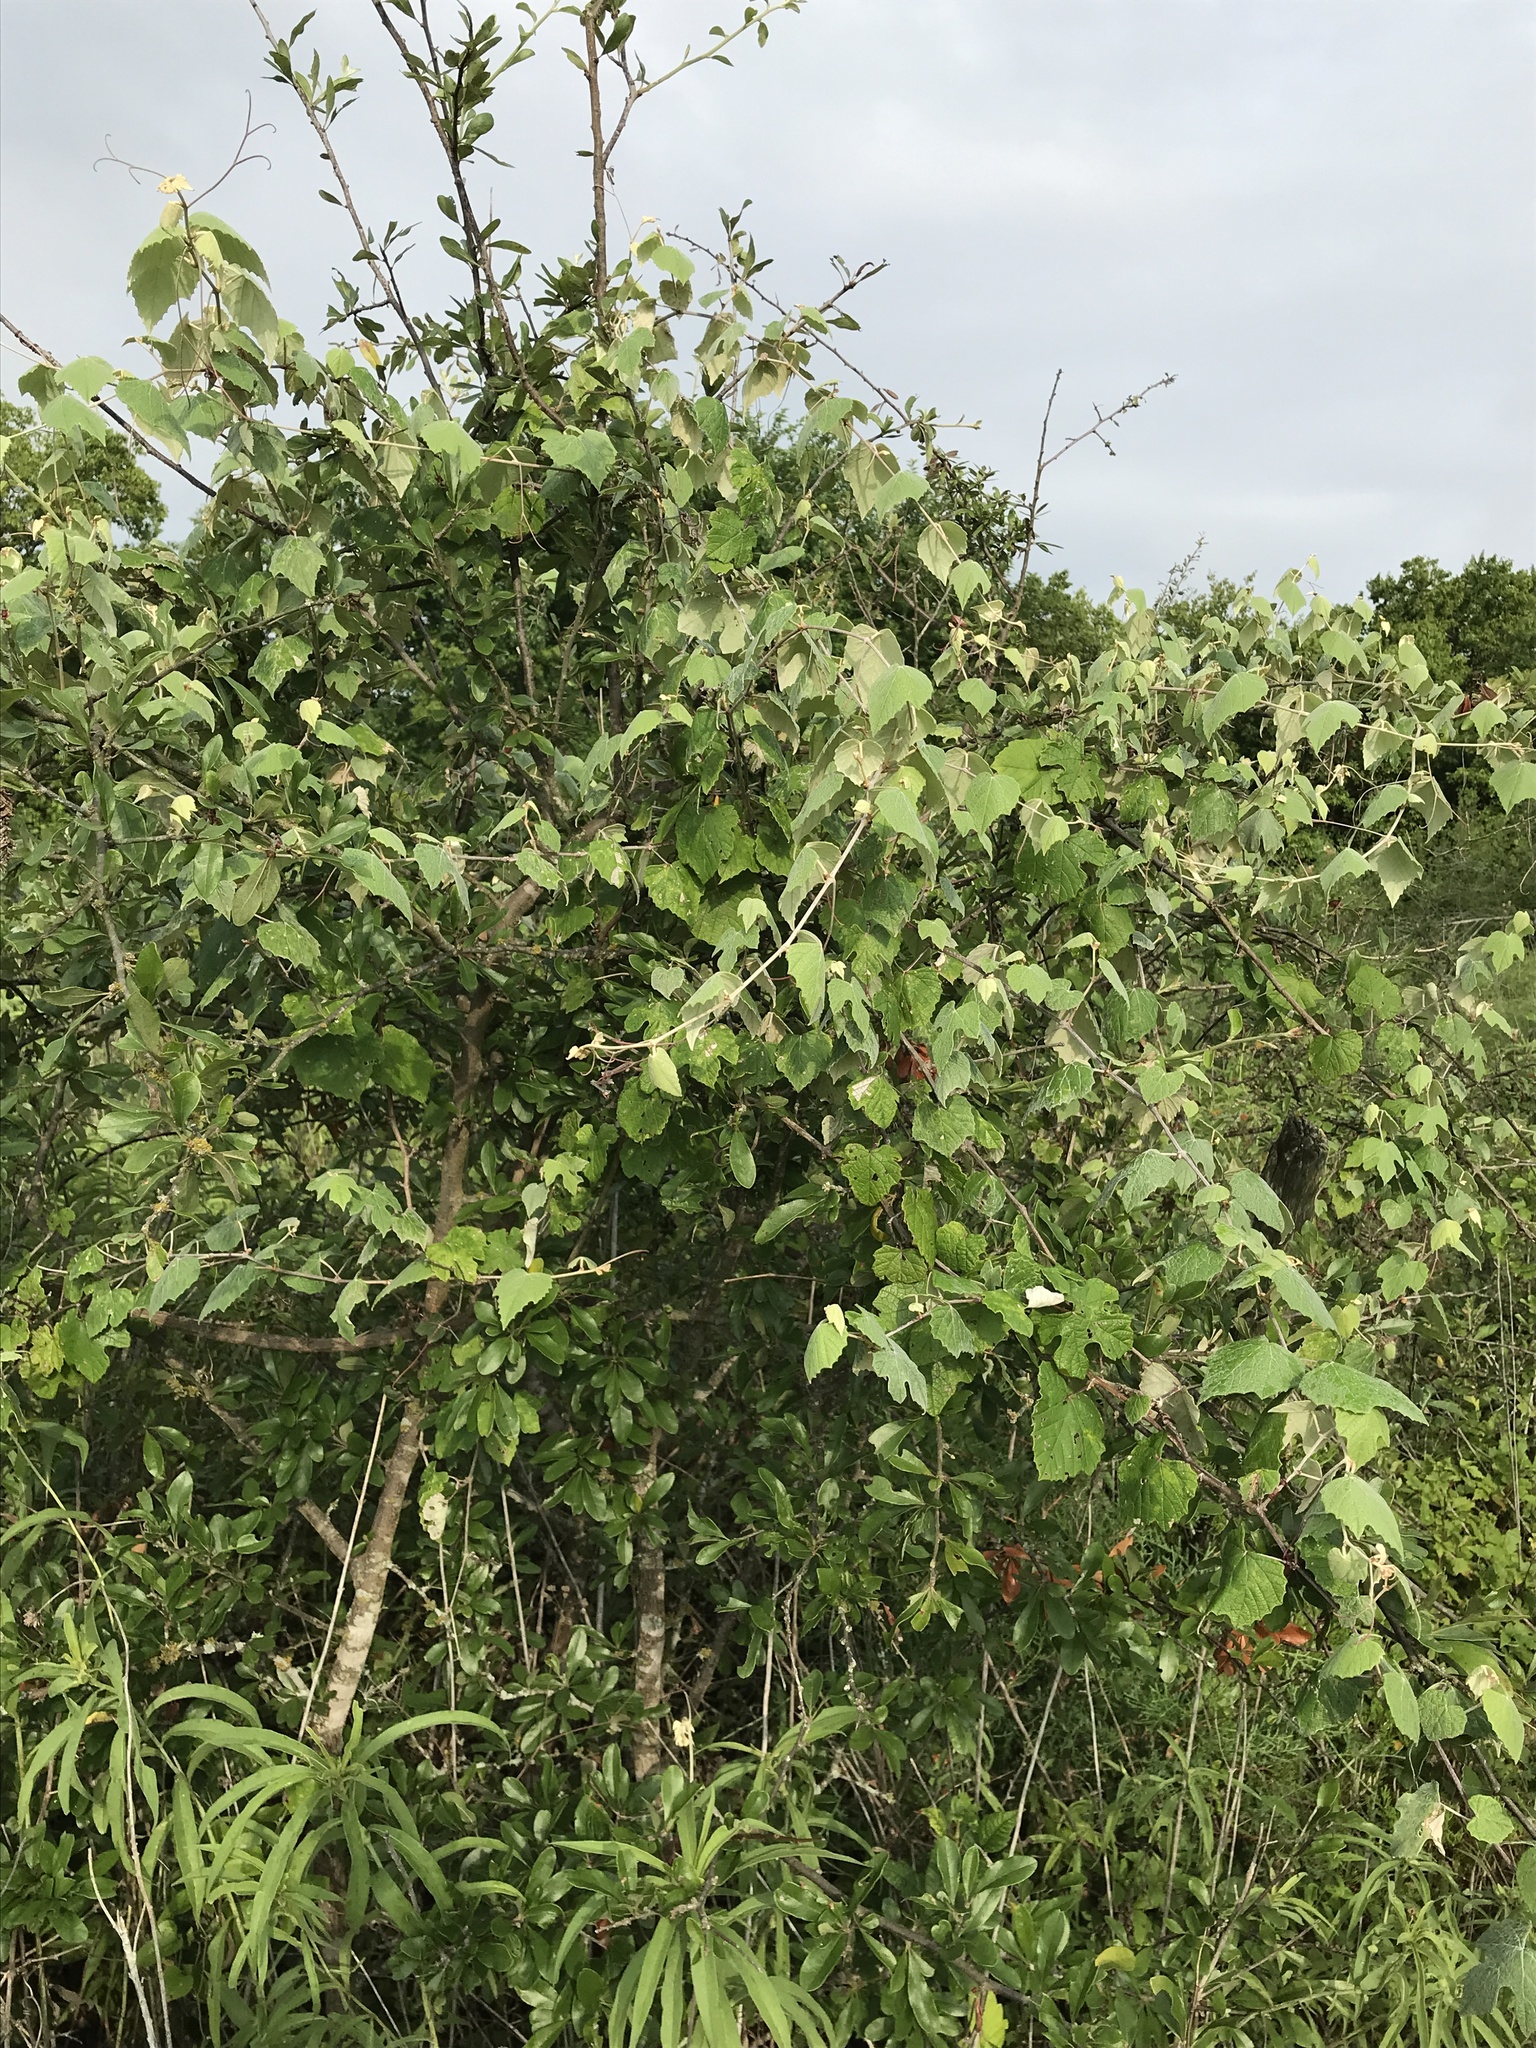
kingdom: Plantae
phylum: Tracheophyta
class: Magnoliopsida
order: Vitales
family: Vitaceae
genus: Vitis
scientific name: Vitis mustangensis
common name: Mustang grape
